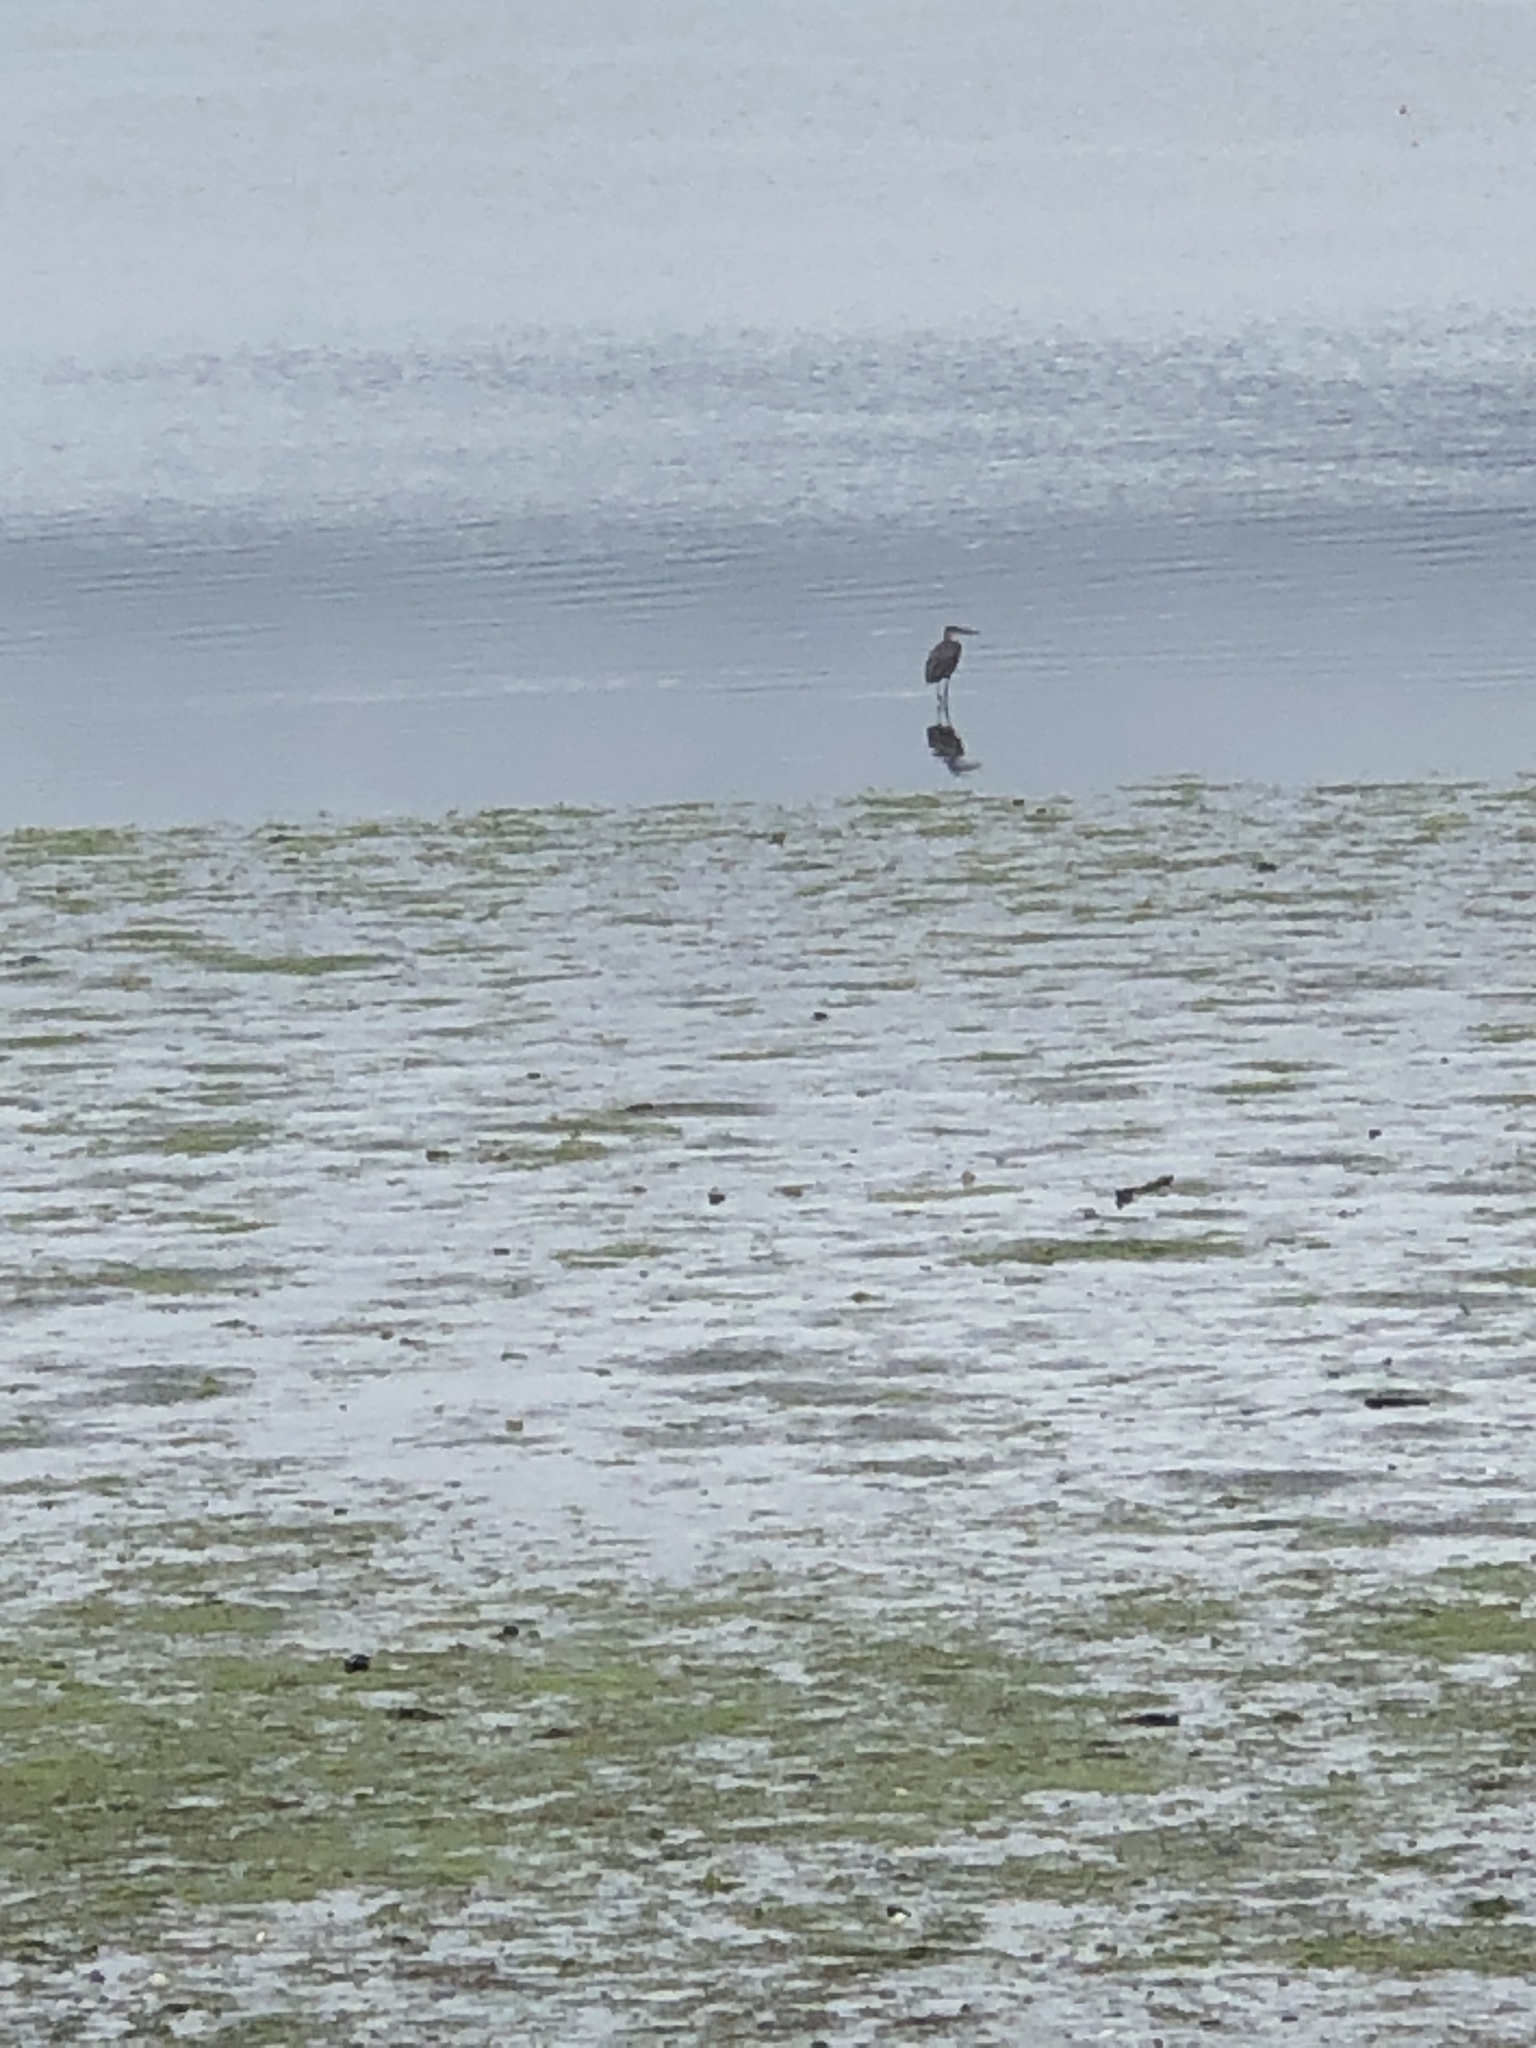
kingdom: Animalia
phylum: Chordata
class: Aves
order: Pelecaniformes
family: Ardeidae
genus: Ardea
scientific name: Ardea herodias
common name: Great blue heron
